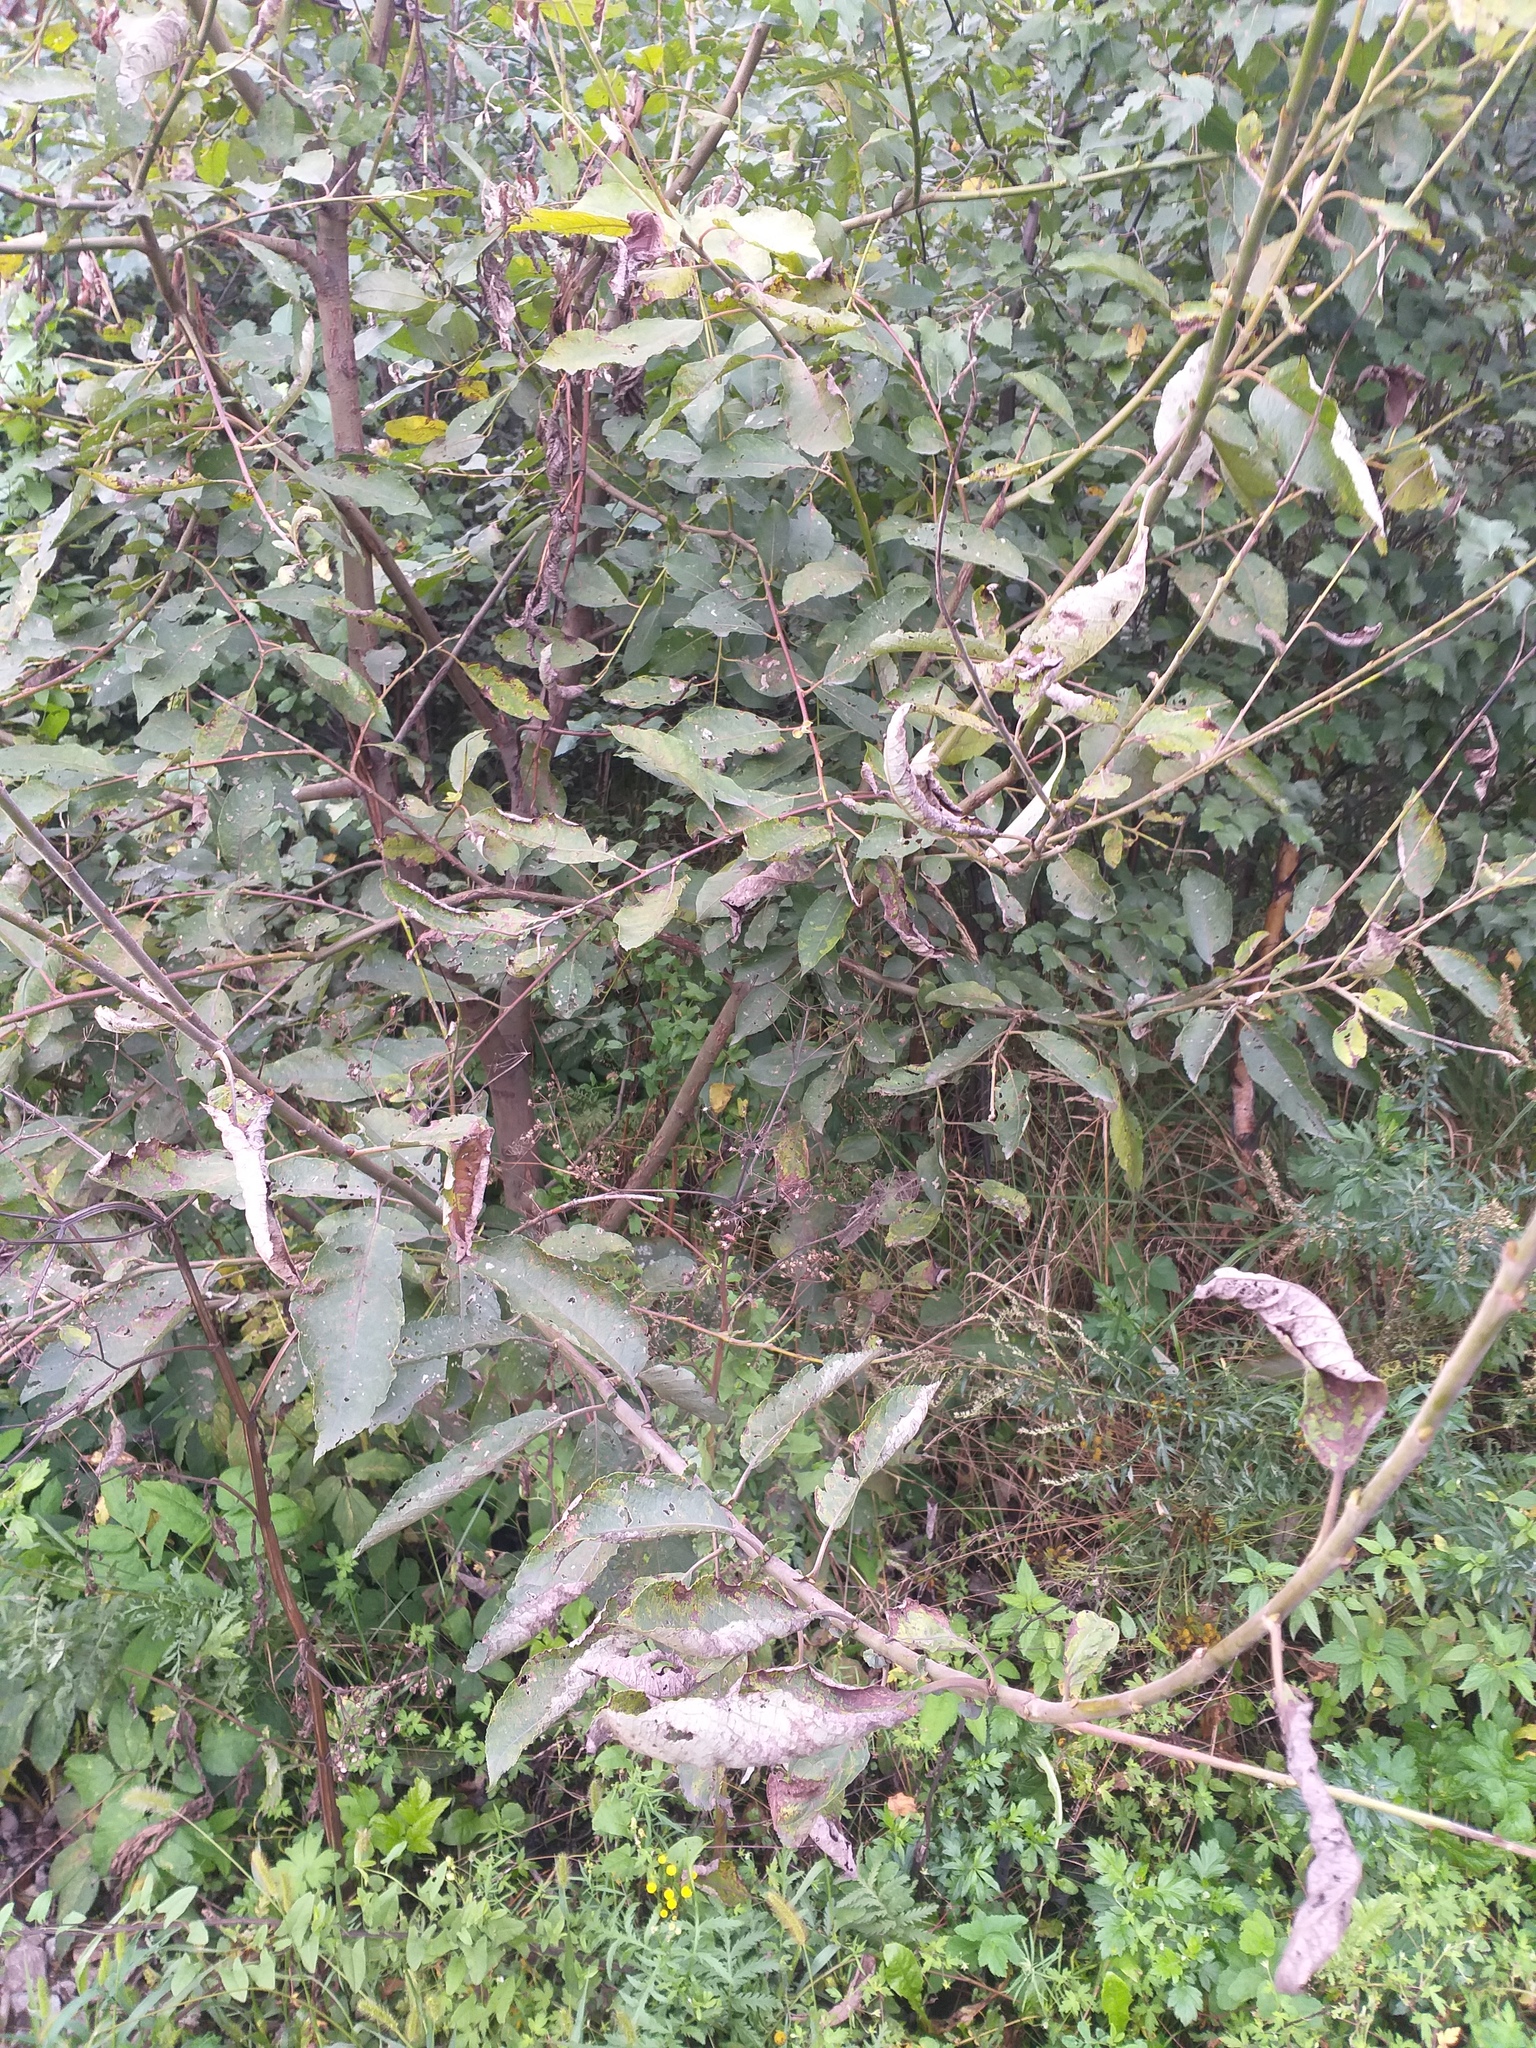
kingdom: Plantae
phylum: Tracheophyta
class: Magnoliopsida
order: Malpighiales
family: Salicaceae
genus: Salix
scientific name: Salix caprea
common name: Goat willow
